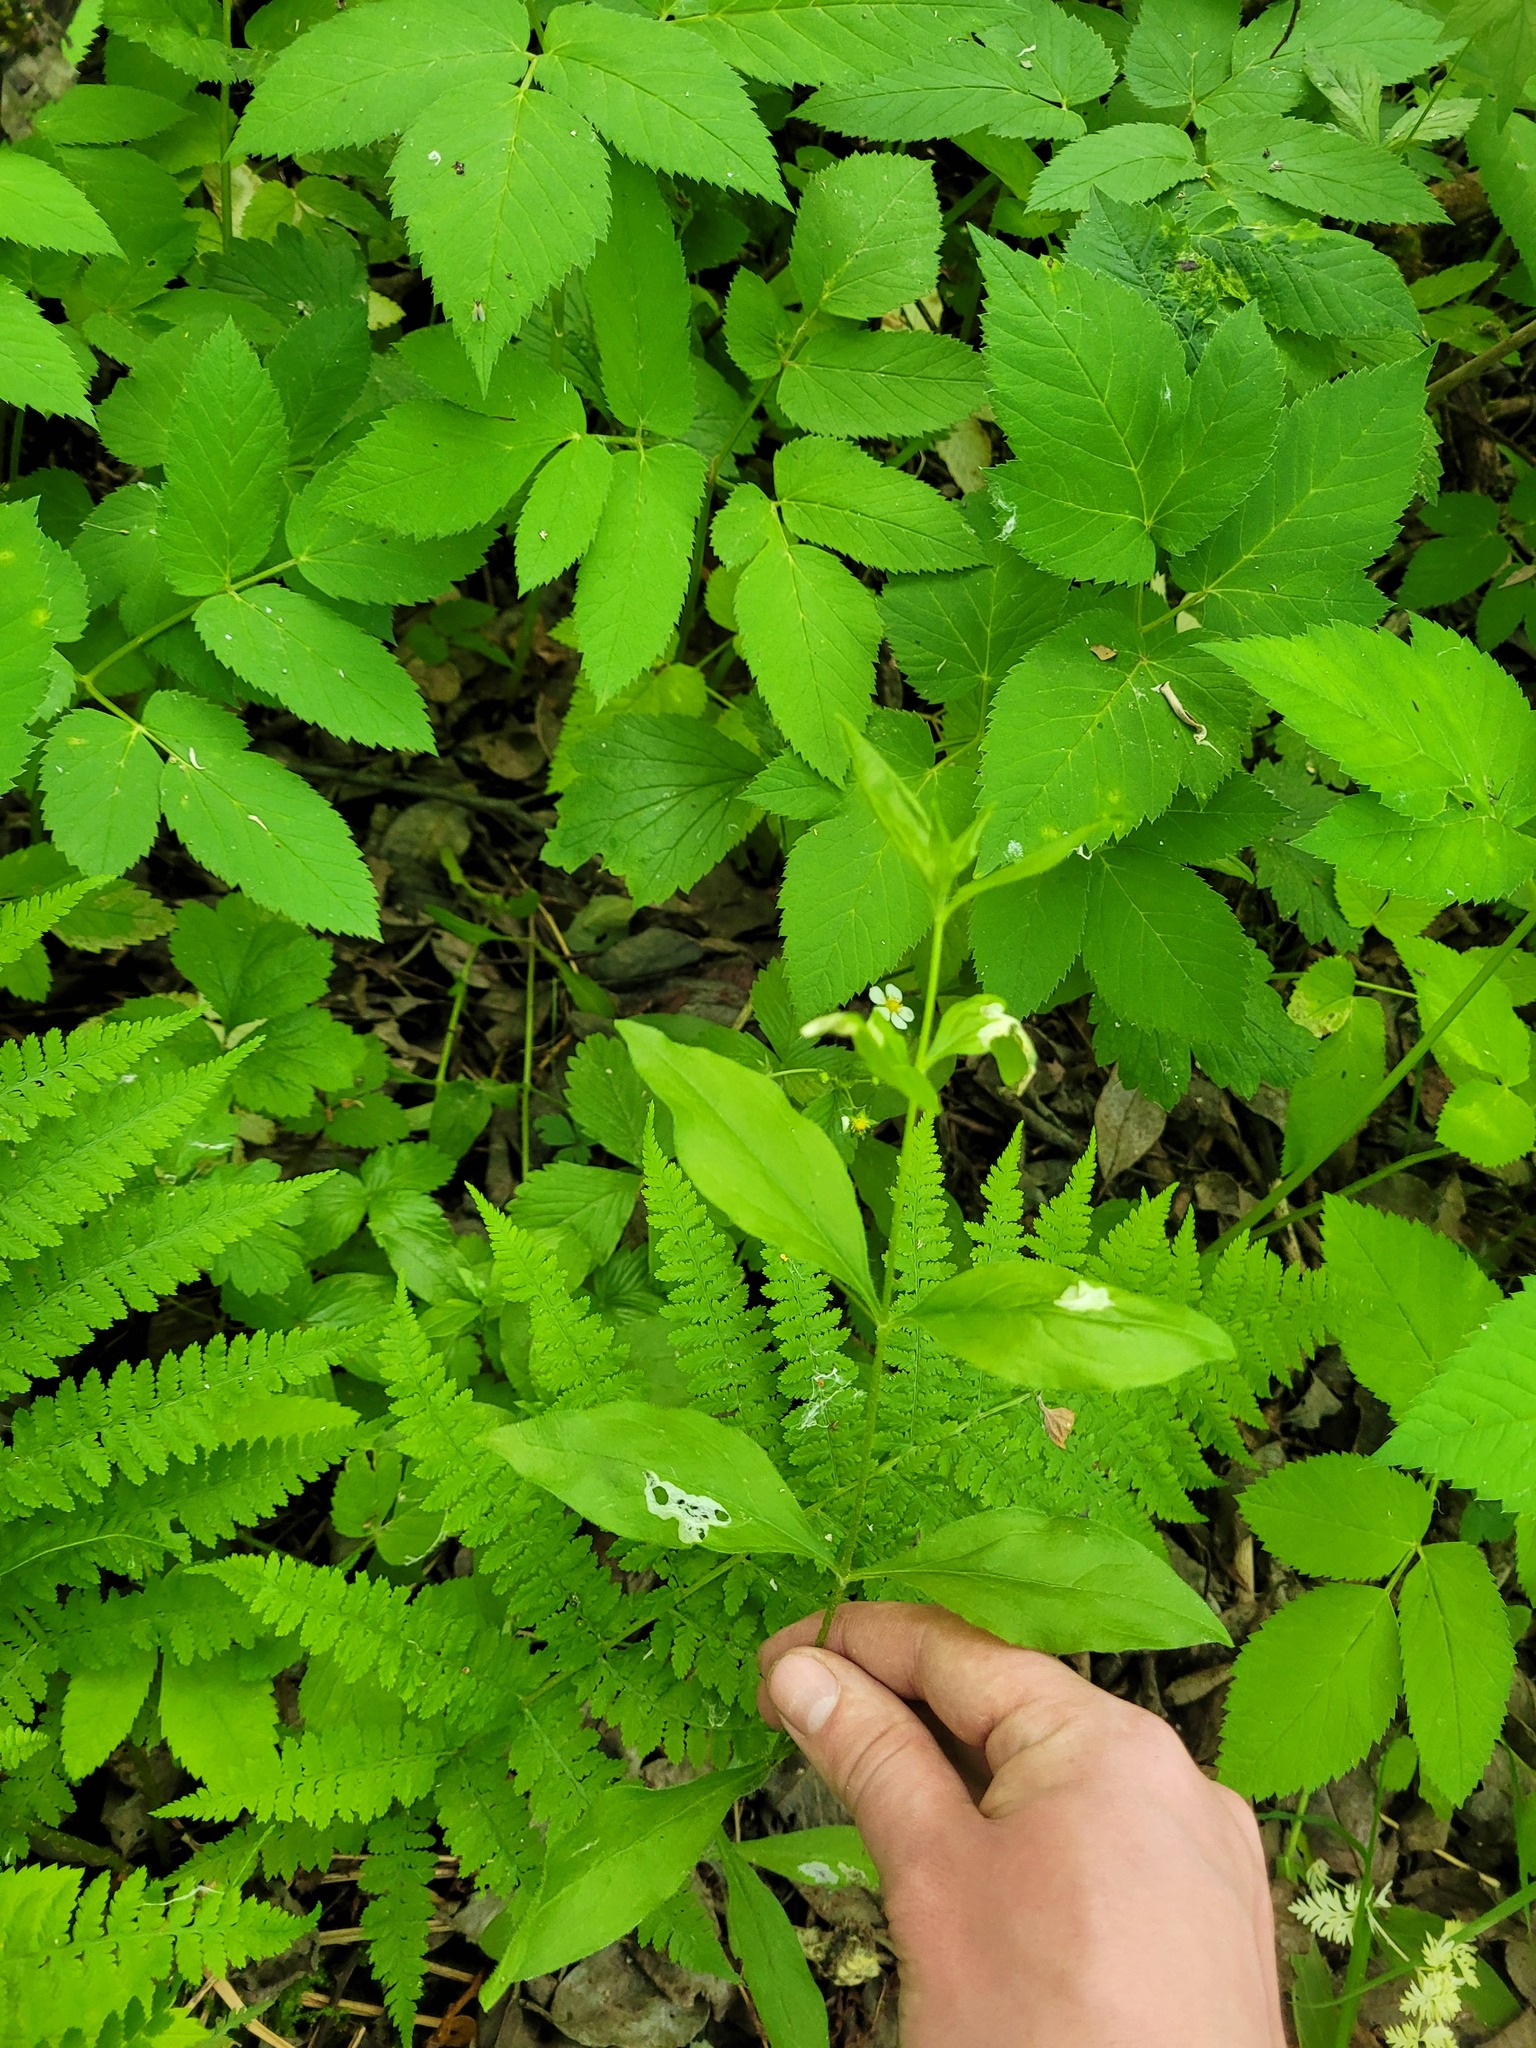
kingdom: Plantae
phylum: Tracheophyta
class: Magnoliopsida
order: Caryophyllales
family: Caryophyllaceae
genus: Silene
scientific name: Silene baccifera
